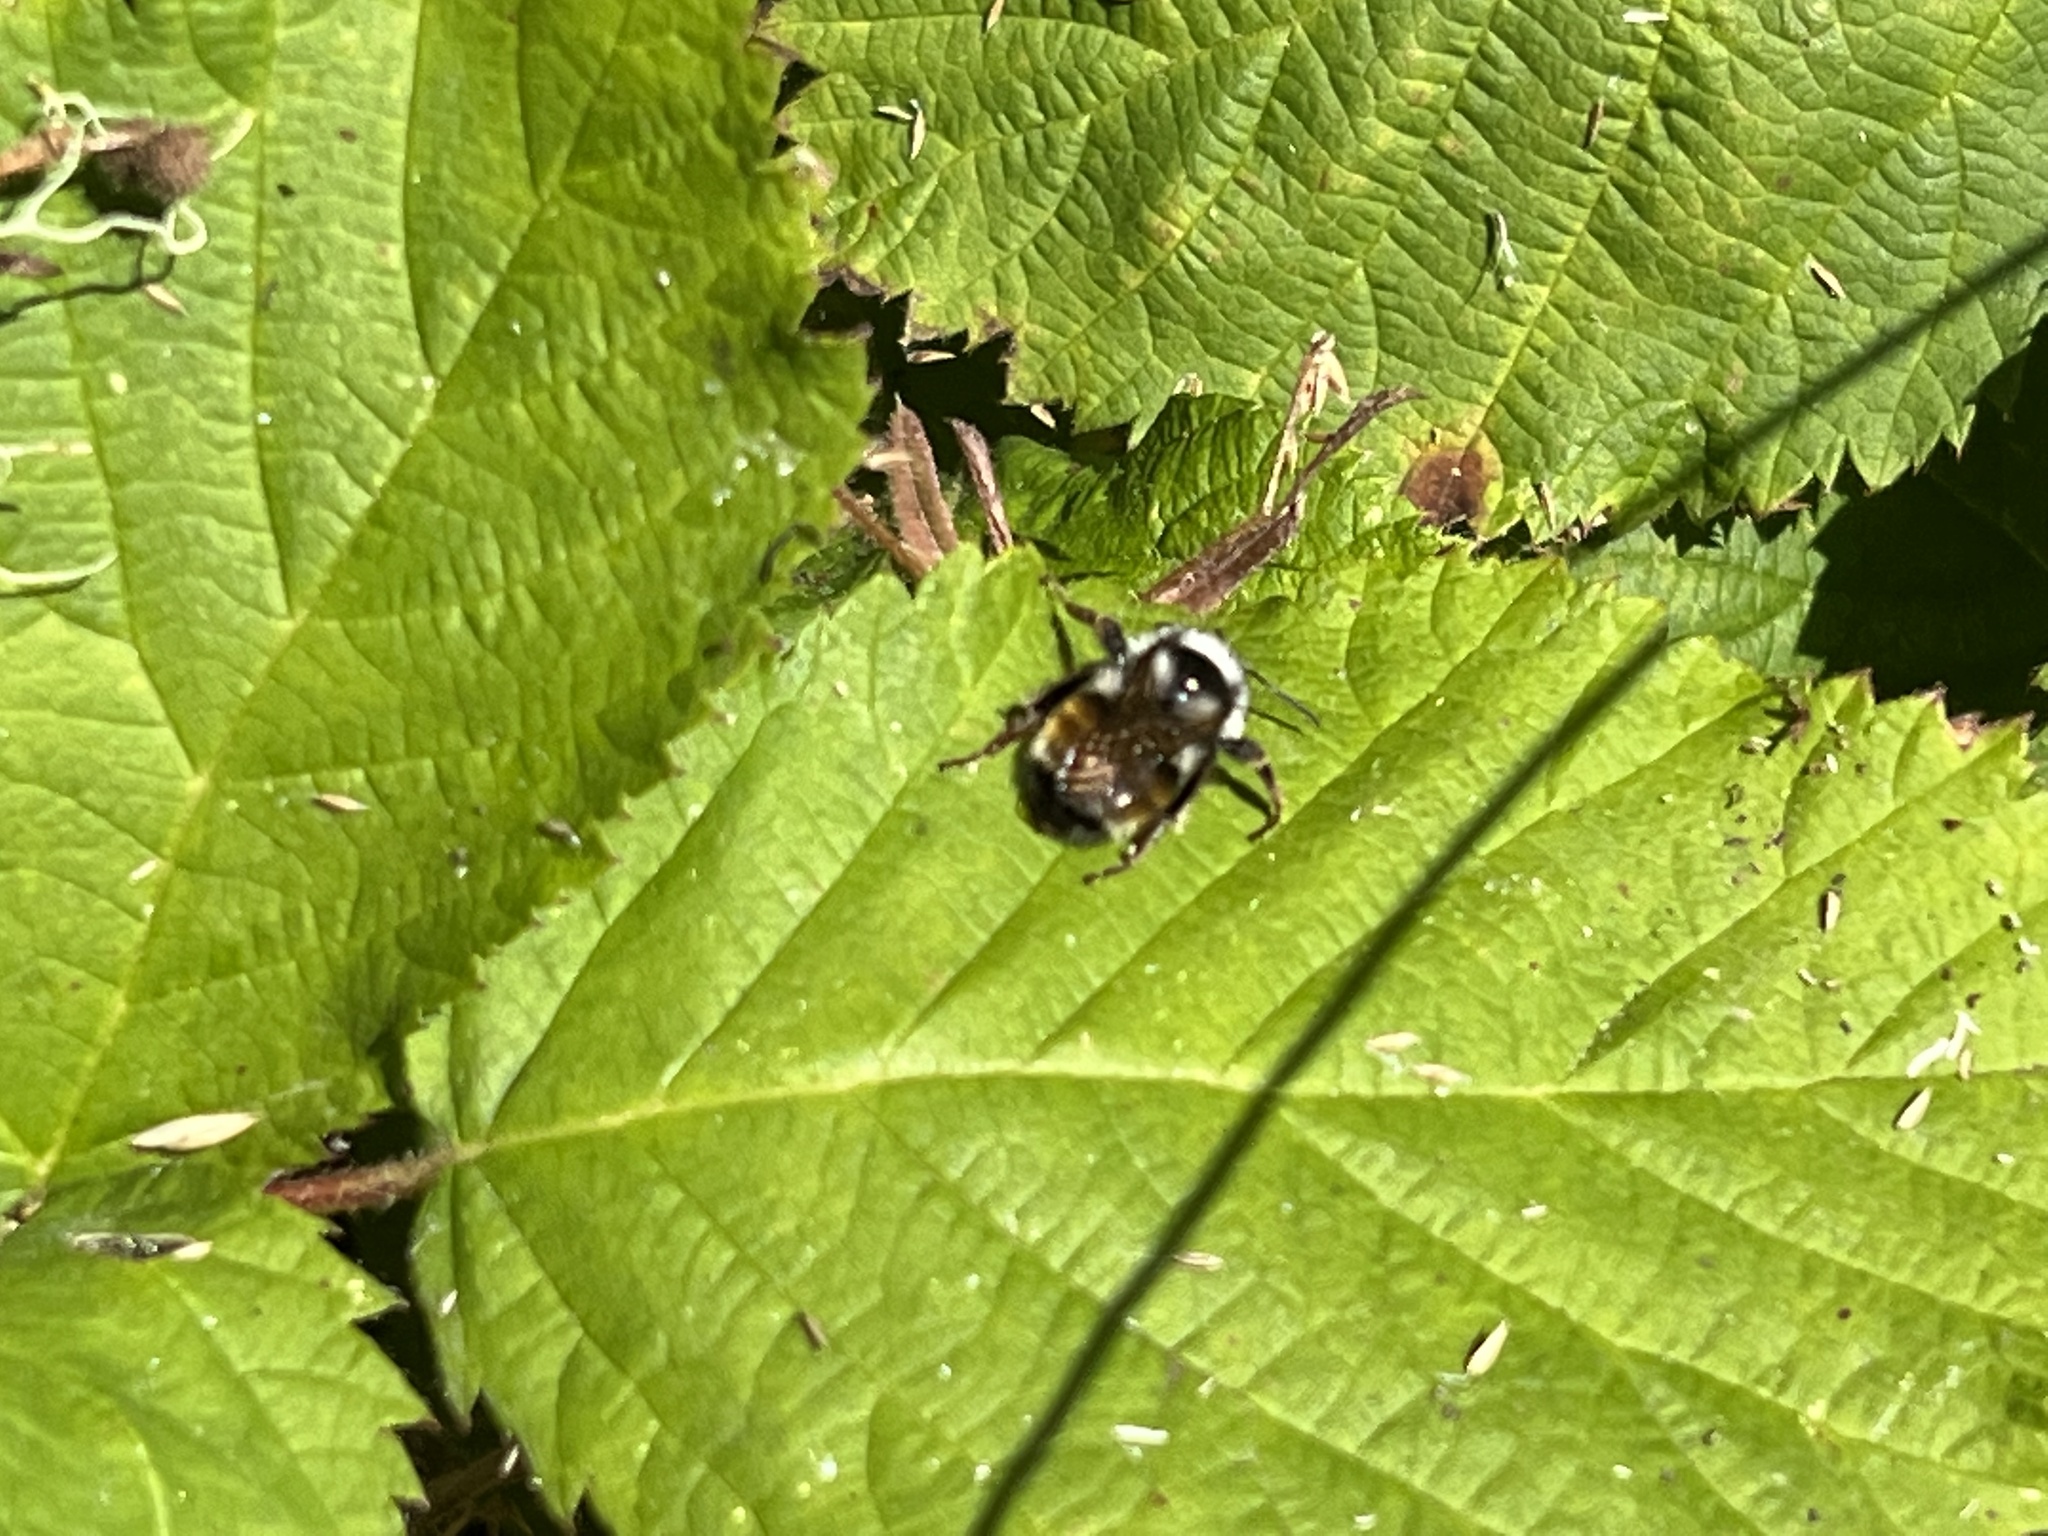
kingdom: Animalia
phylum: Arthropoda
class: Insecta
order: Hymenoptera
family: Apidae
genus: Bombus
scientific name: Bombus vancouverensis
